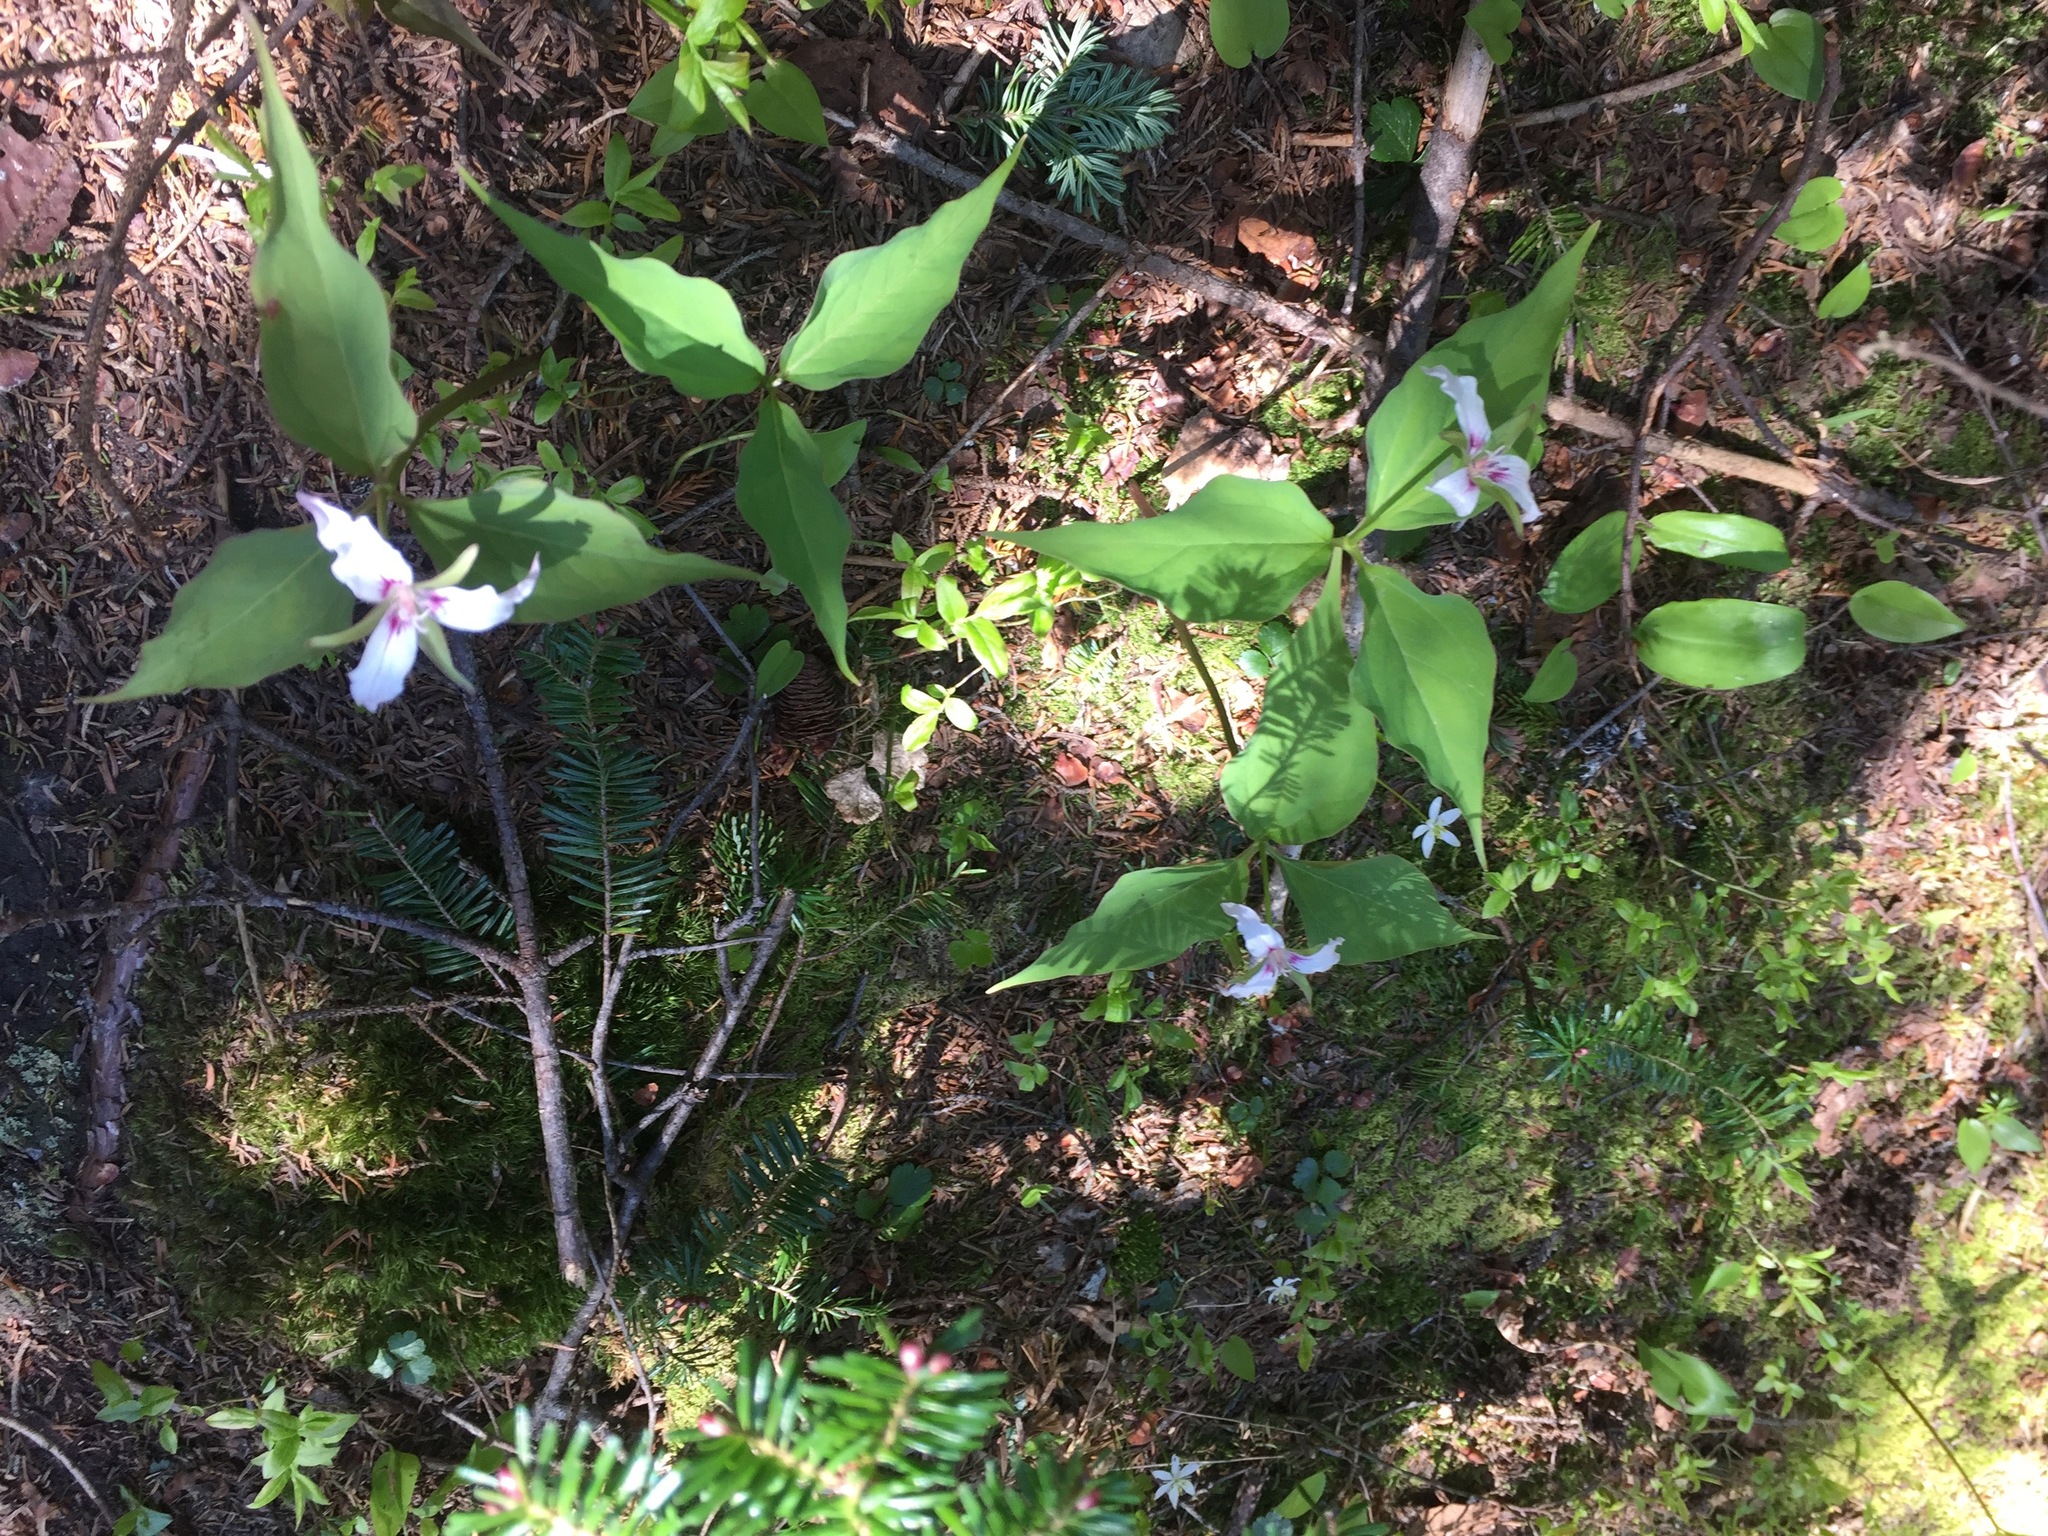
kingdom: Plantae
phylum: Tracheophyta
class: Liliopsida
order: Liliales
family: Melanthiaceae
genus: Trillium
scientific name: Trillium undulatum
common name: Paint trillium
